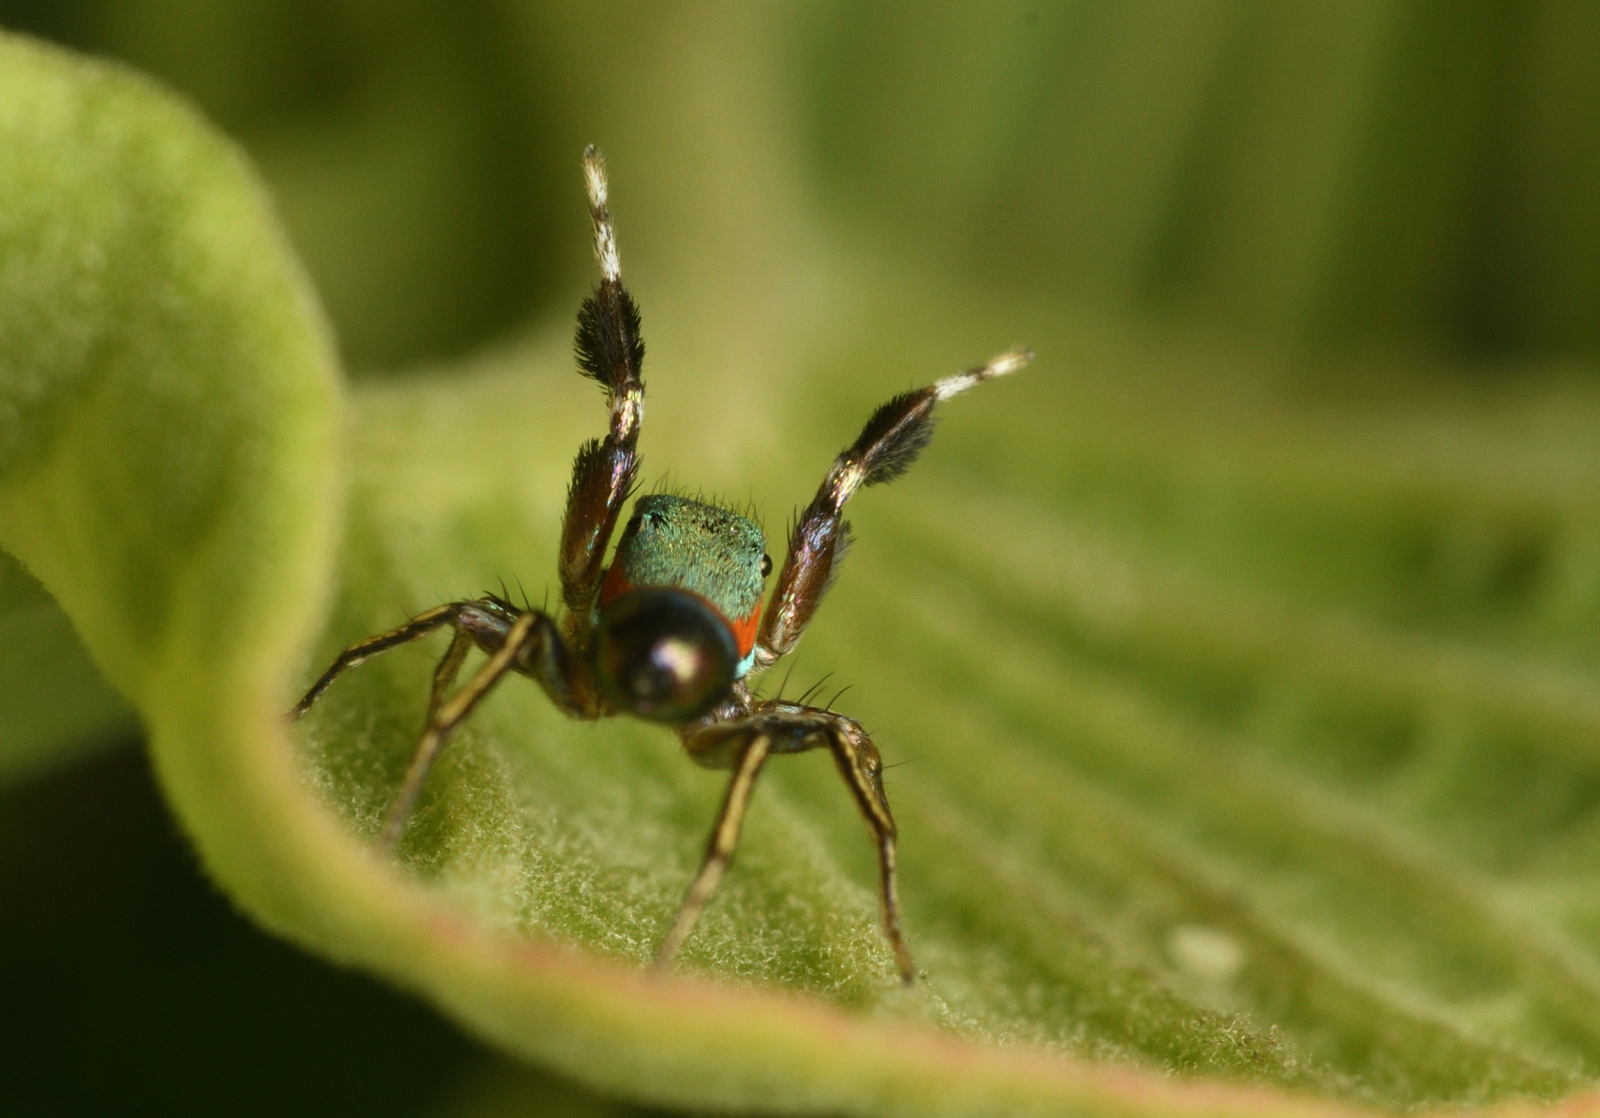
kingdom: Animalia
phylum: Arthropoda
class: Arachnida
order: Araneae
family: Salticidae
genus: Siler
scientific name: Siler semiglaucus
